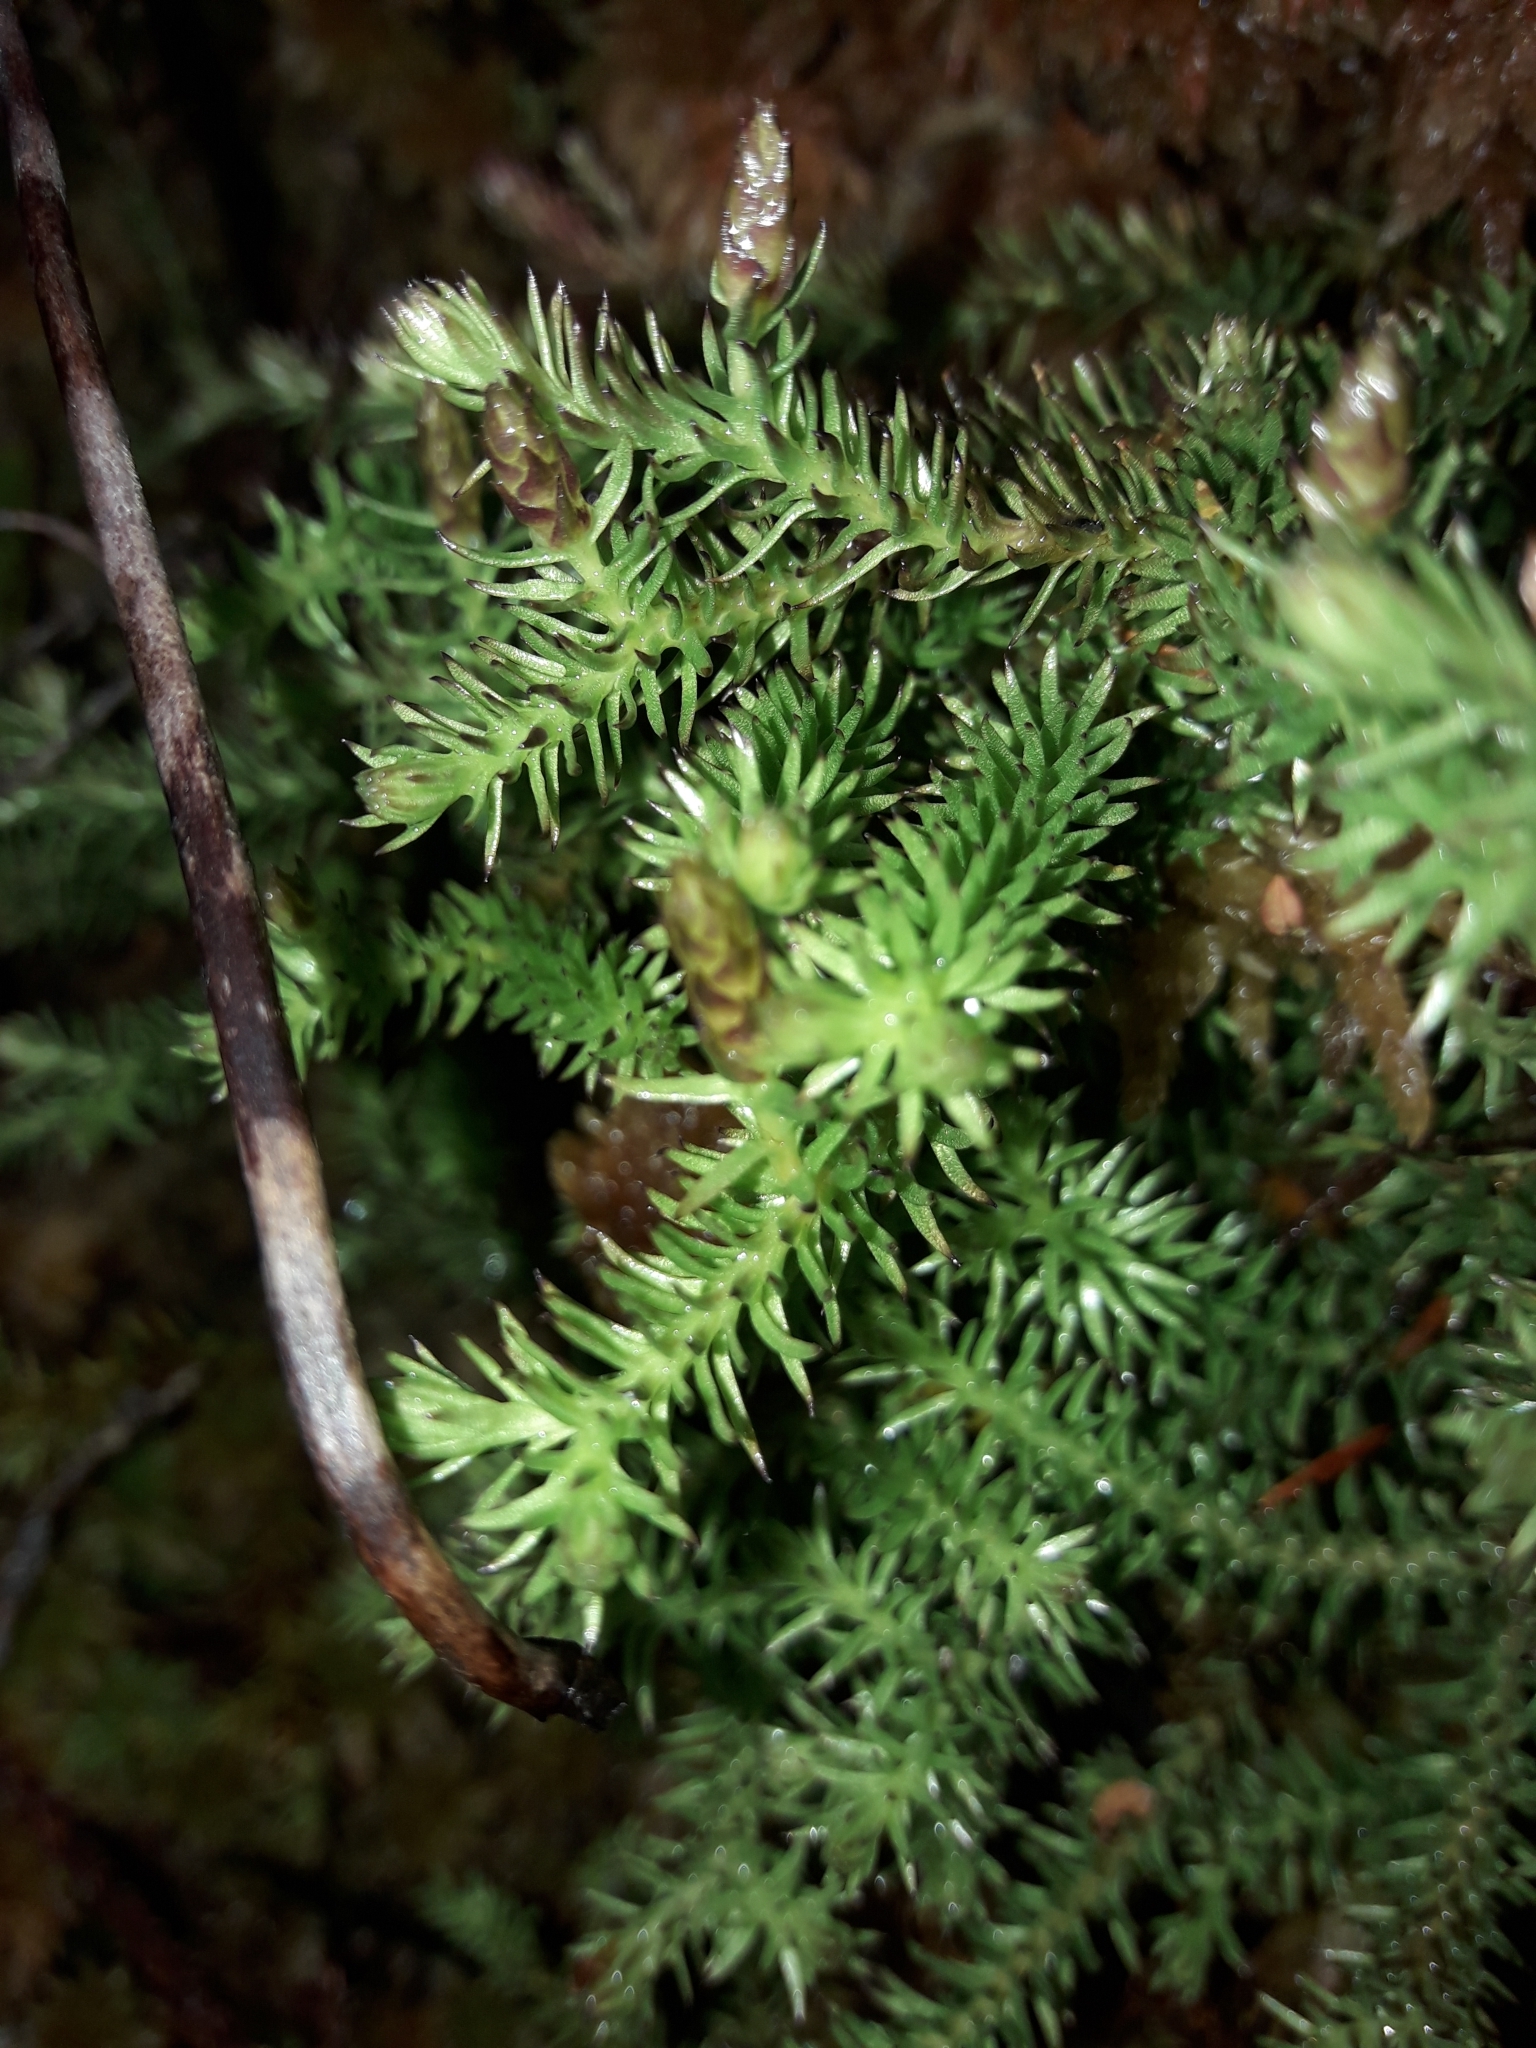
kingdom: Plantae
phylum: Tracheophyta
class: Lycopodiopsida
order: Lycopodiales
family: Lycopodiaceae
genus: Lateristachys
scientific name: Lateristachys diffusa
